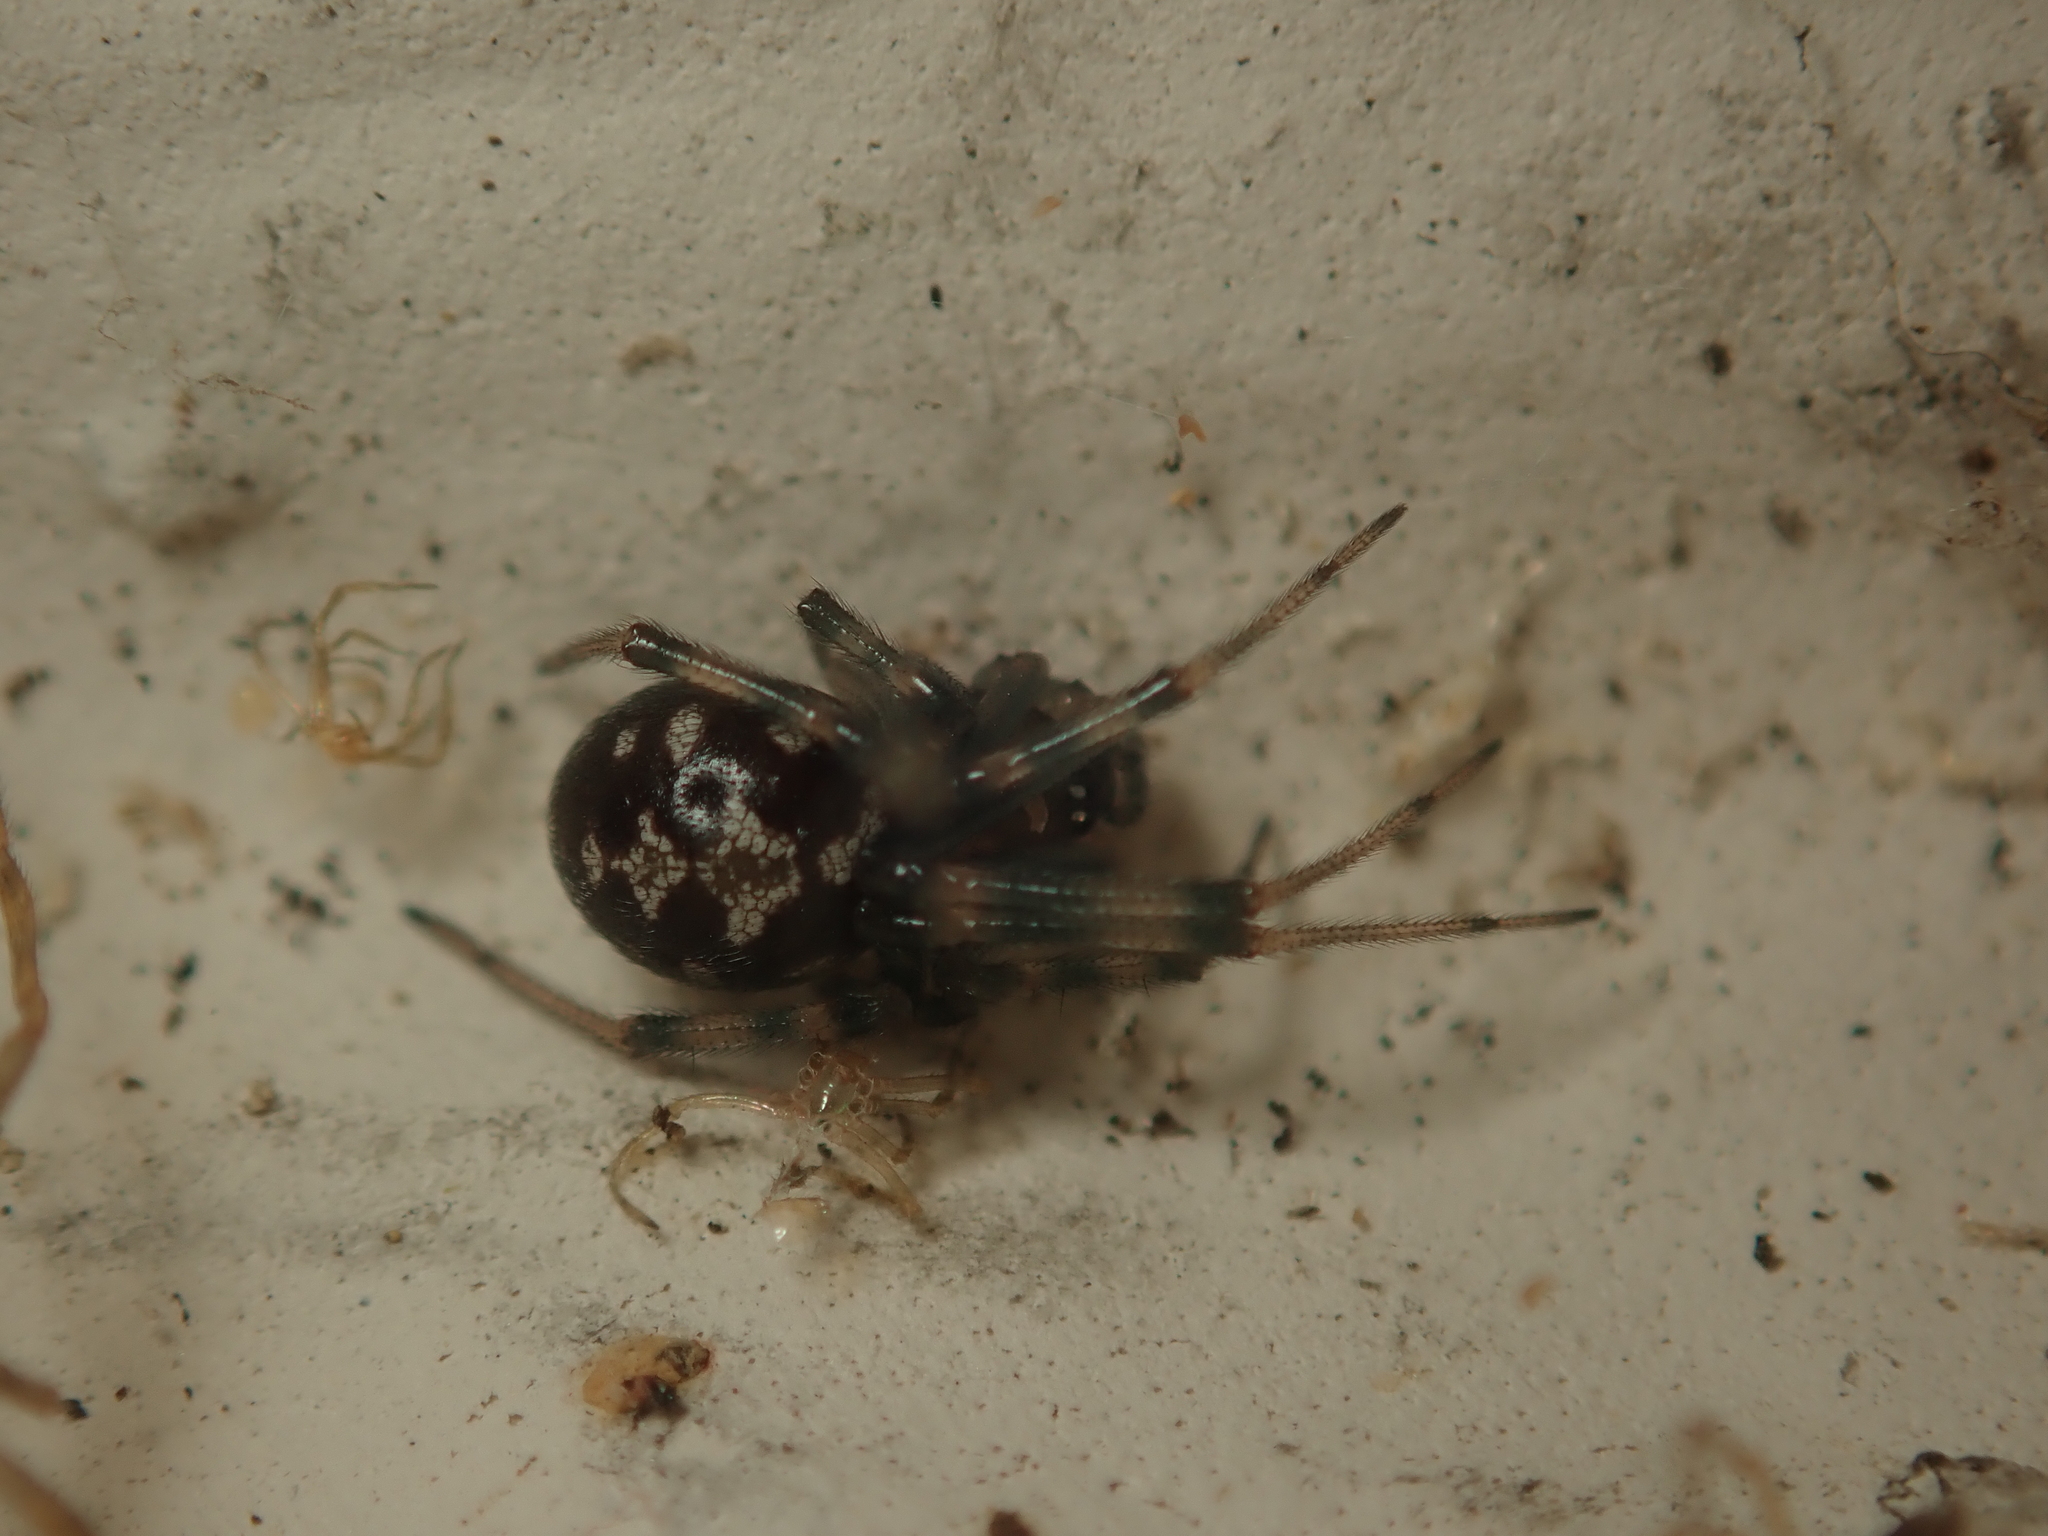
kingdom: Animalia
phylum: Arthropoda
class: Arachnida
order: Araneae
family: Theridiidae
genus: Steatoda
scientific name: Steatoda triangulosa
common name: Triangulate bud spider
